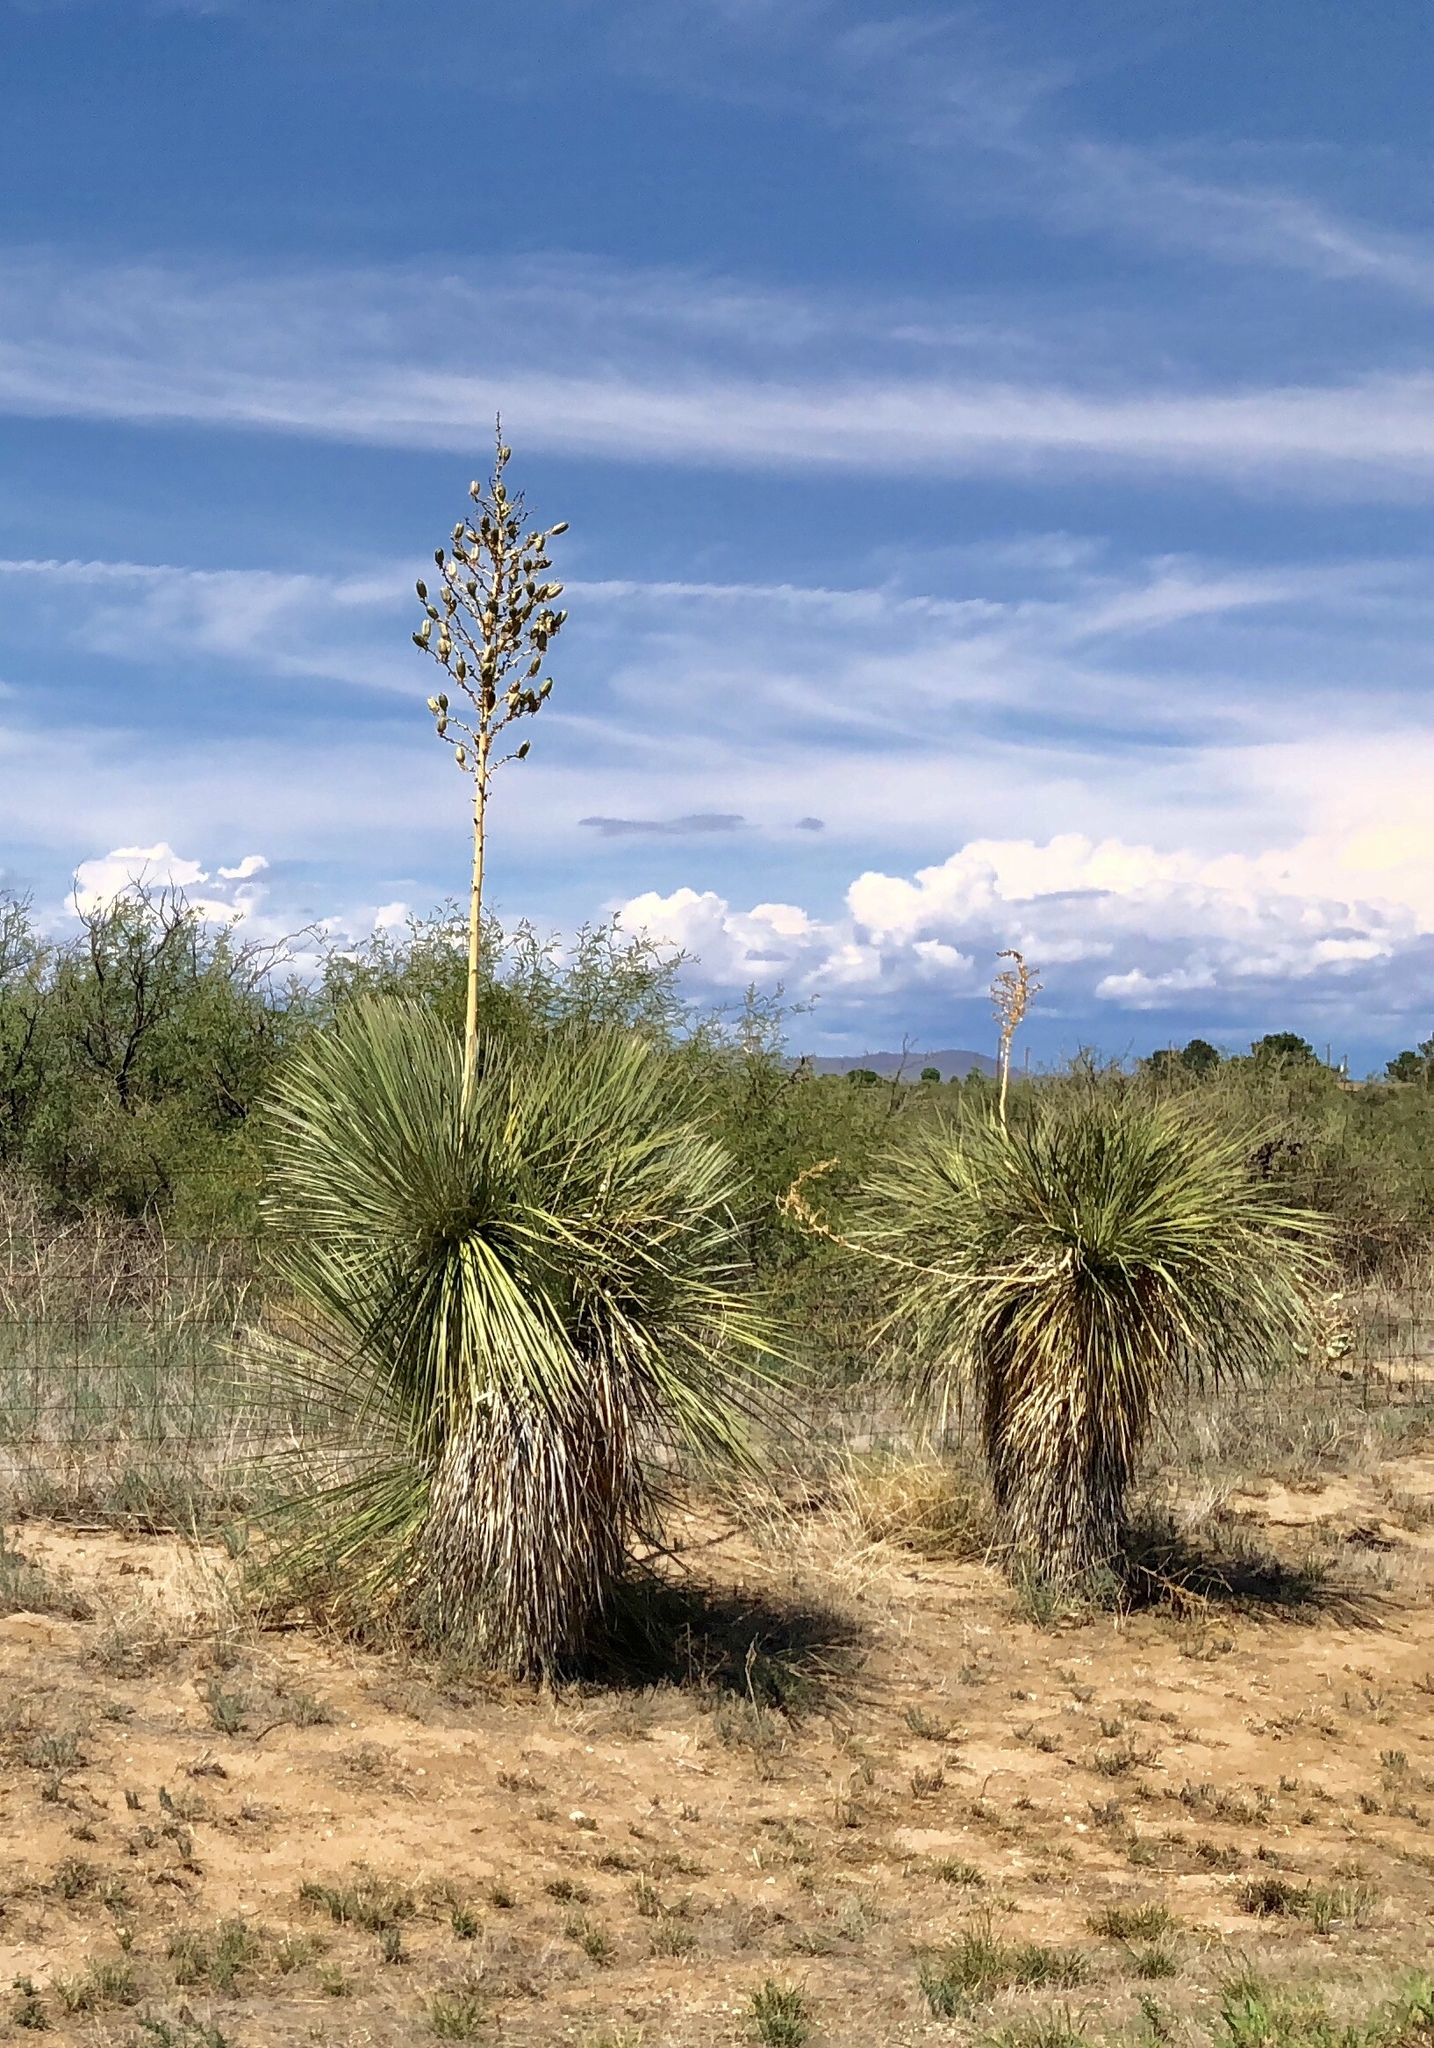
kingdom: Plantae
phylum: Tracheophyta
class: Liliopsida
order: Asparagales
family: Asparagaceae
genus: Yucca
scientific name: Yucca elata
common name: Palmella
